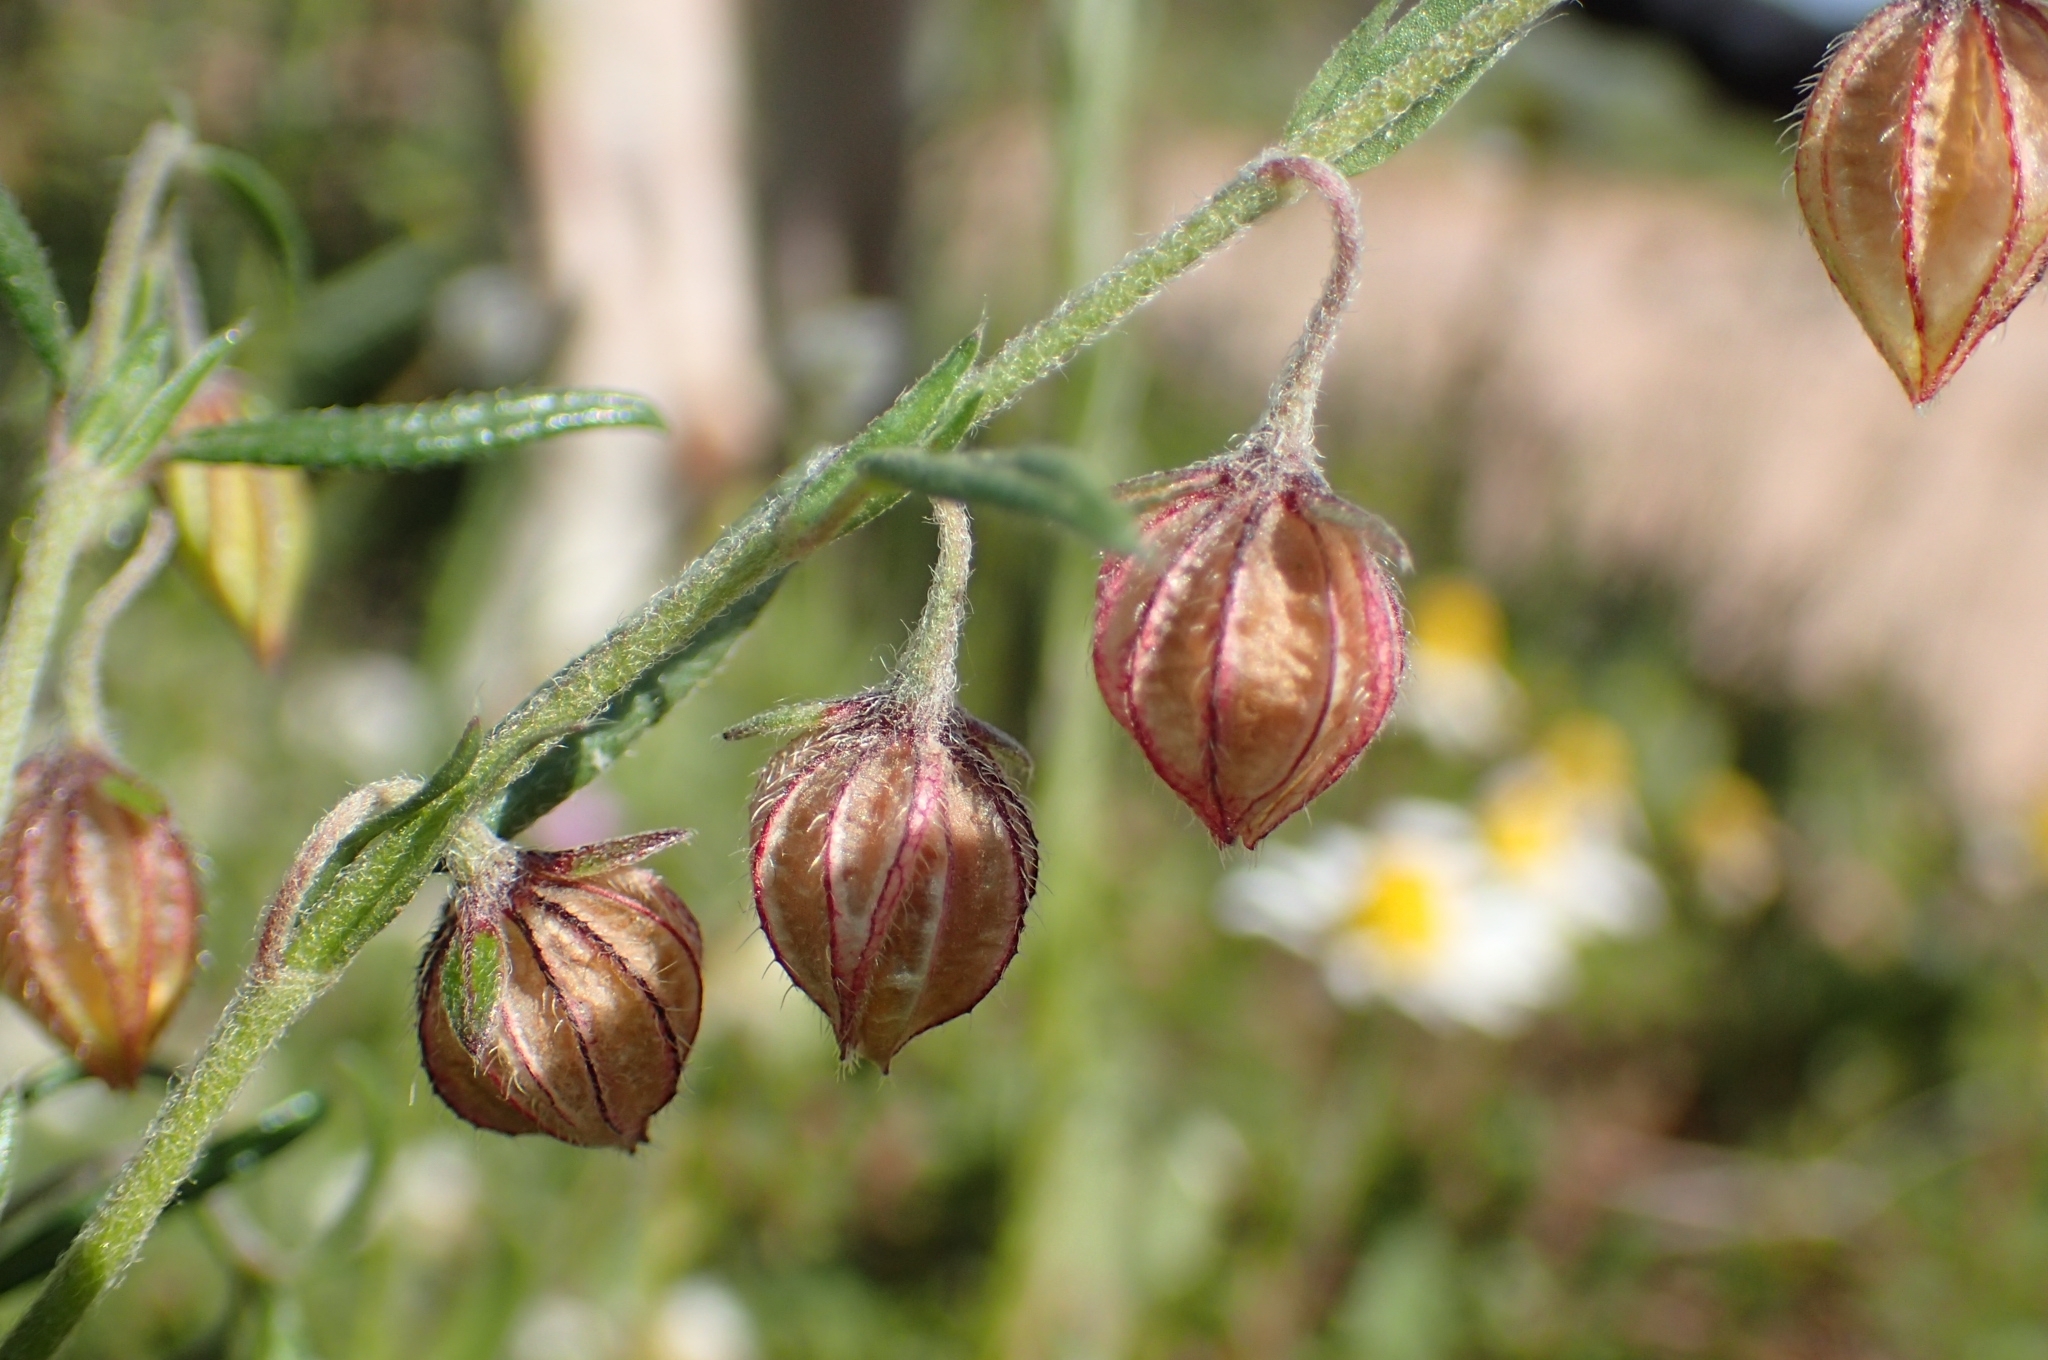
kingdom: Plantae
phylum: Tracheophyta
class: Magnoliopsida
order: Malvales
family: Cistaceae
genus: Helianthemum
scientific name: Helianthemum aegyptiacum
